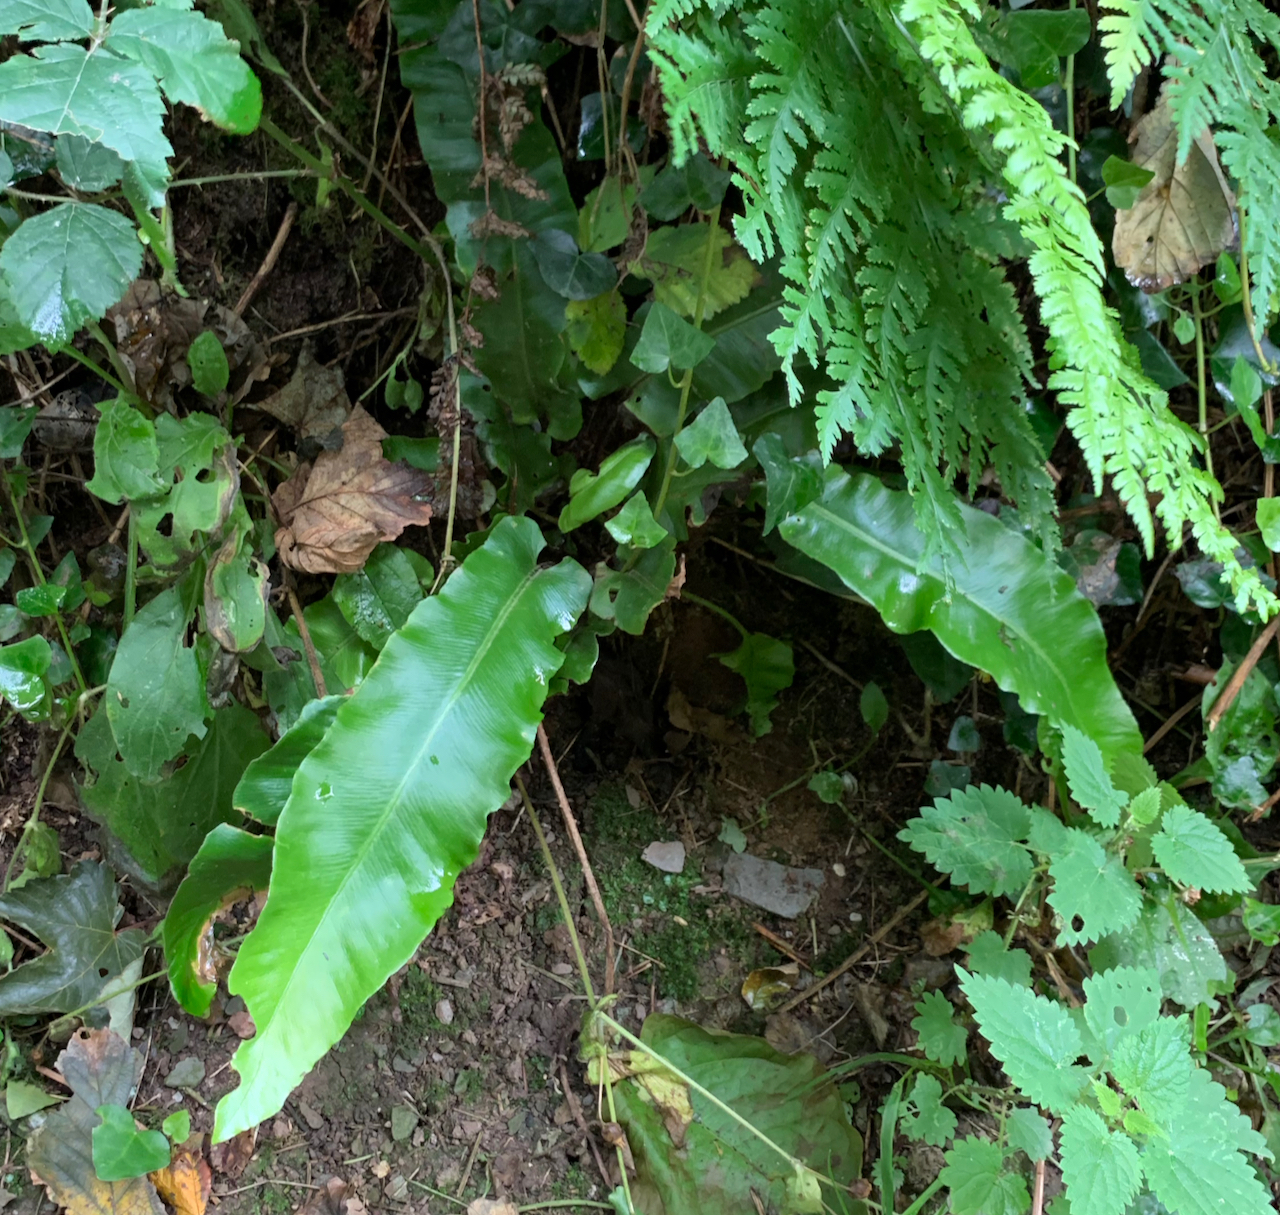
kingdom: Plantae
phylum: Tracheophyta
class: Polypodiopsida
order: Polypodiales
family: Aspleniaceae
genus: Asplenium
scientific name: Asplenium scolopendrium
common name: Hart's-tongue fern
